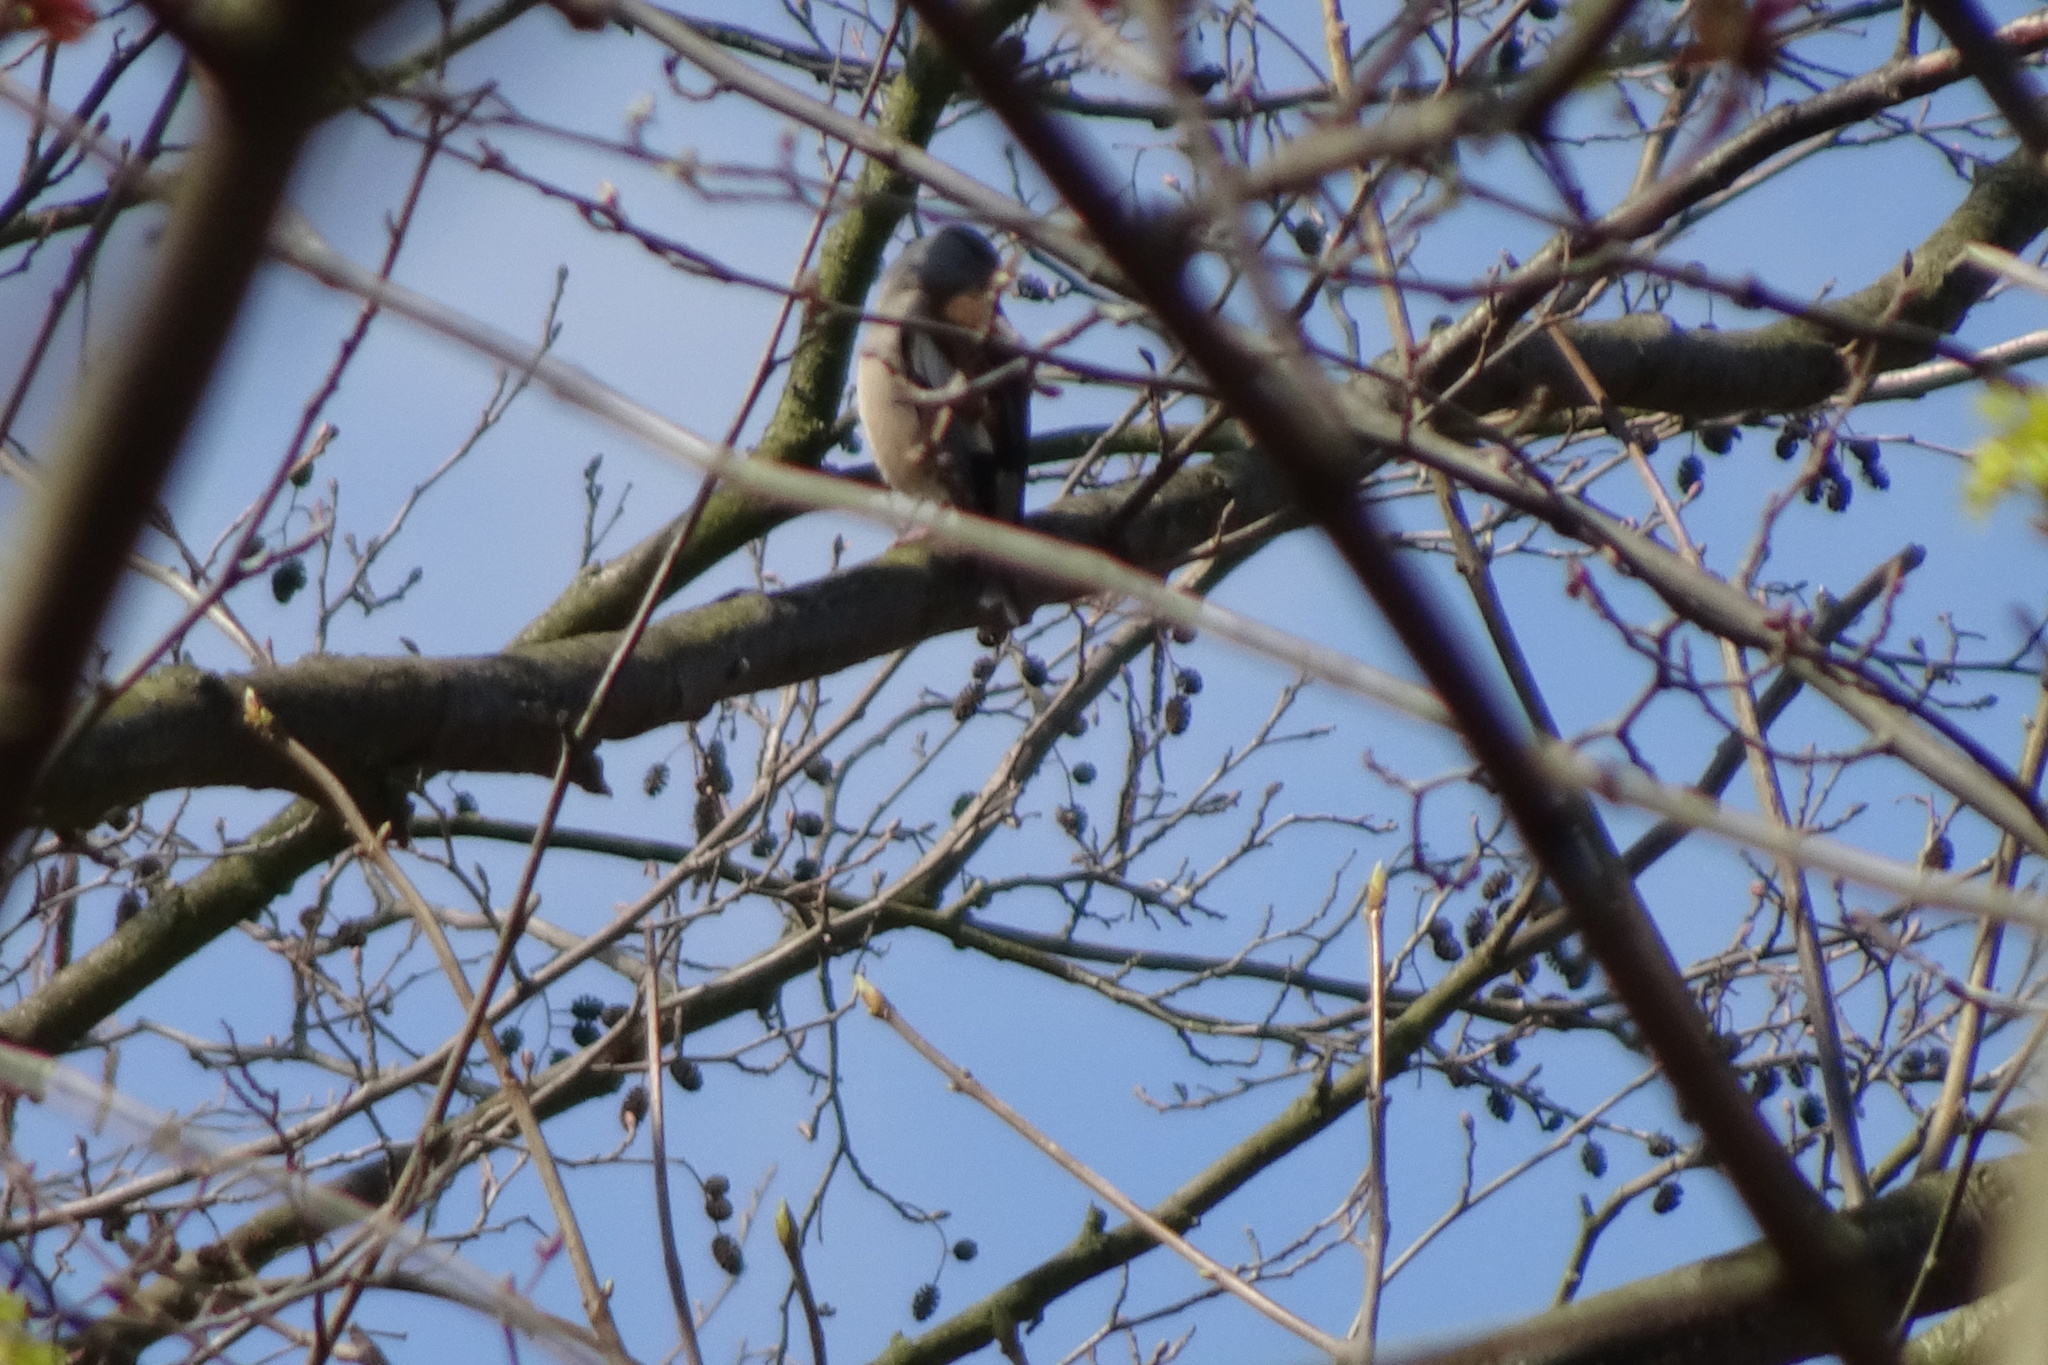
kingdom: Animalia
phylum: Chordata
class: Aves
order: Passeriformes
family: Fringillidae
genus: Coccothraustes
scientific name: Coccothraustes coccothraustes
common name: Hawfinch
